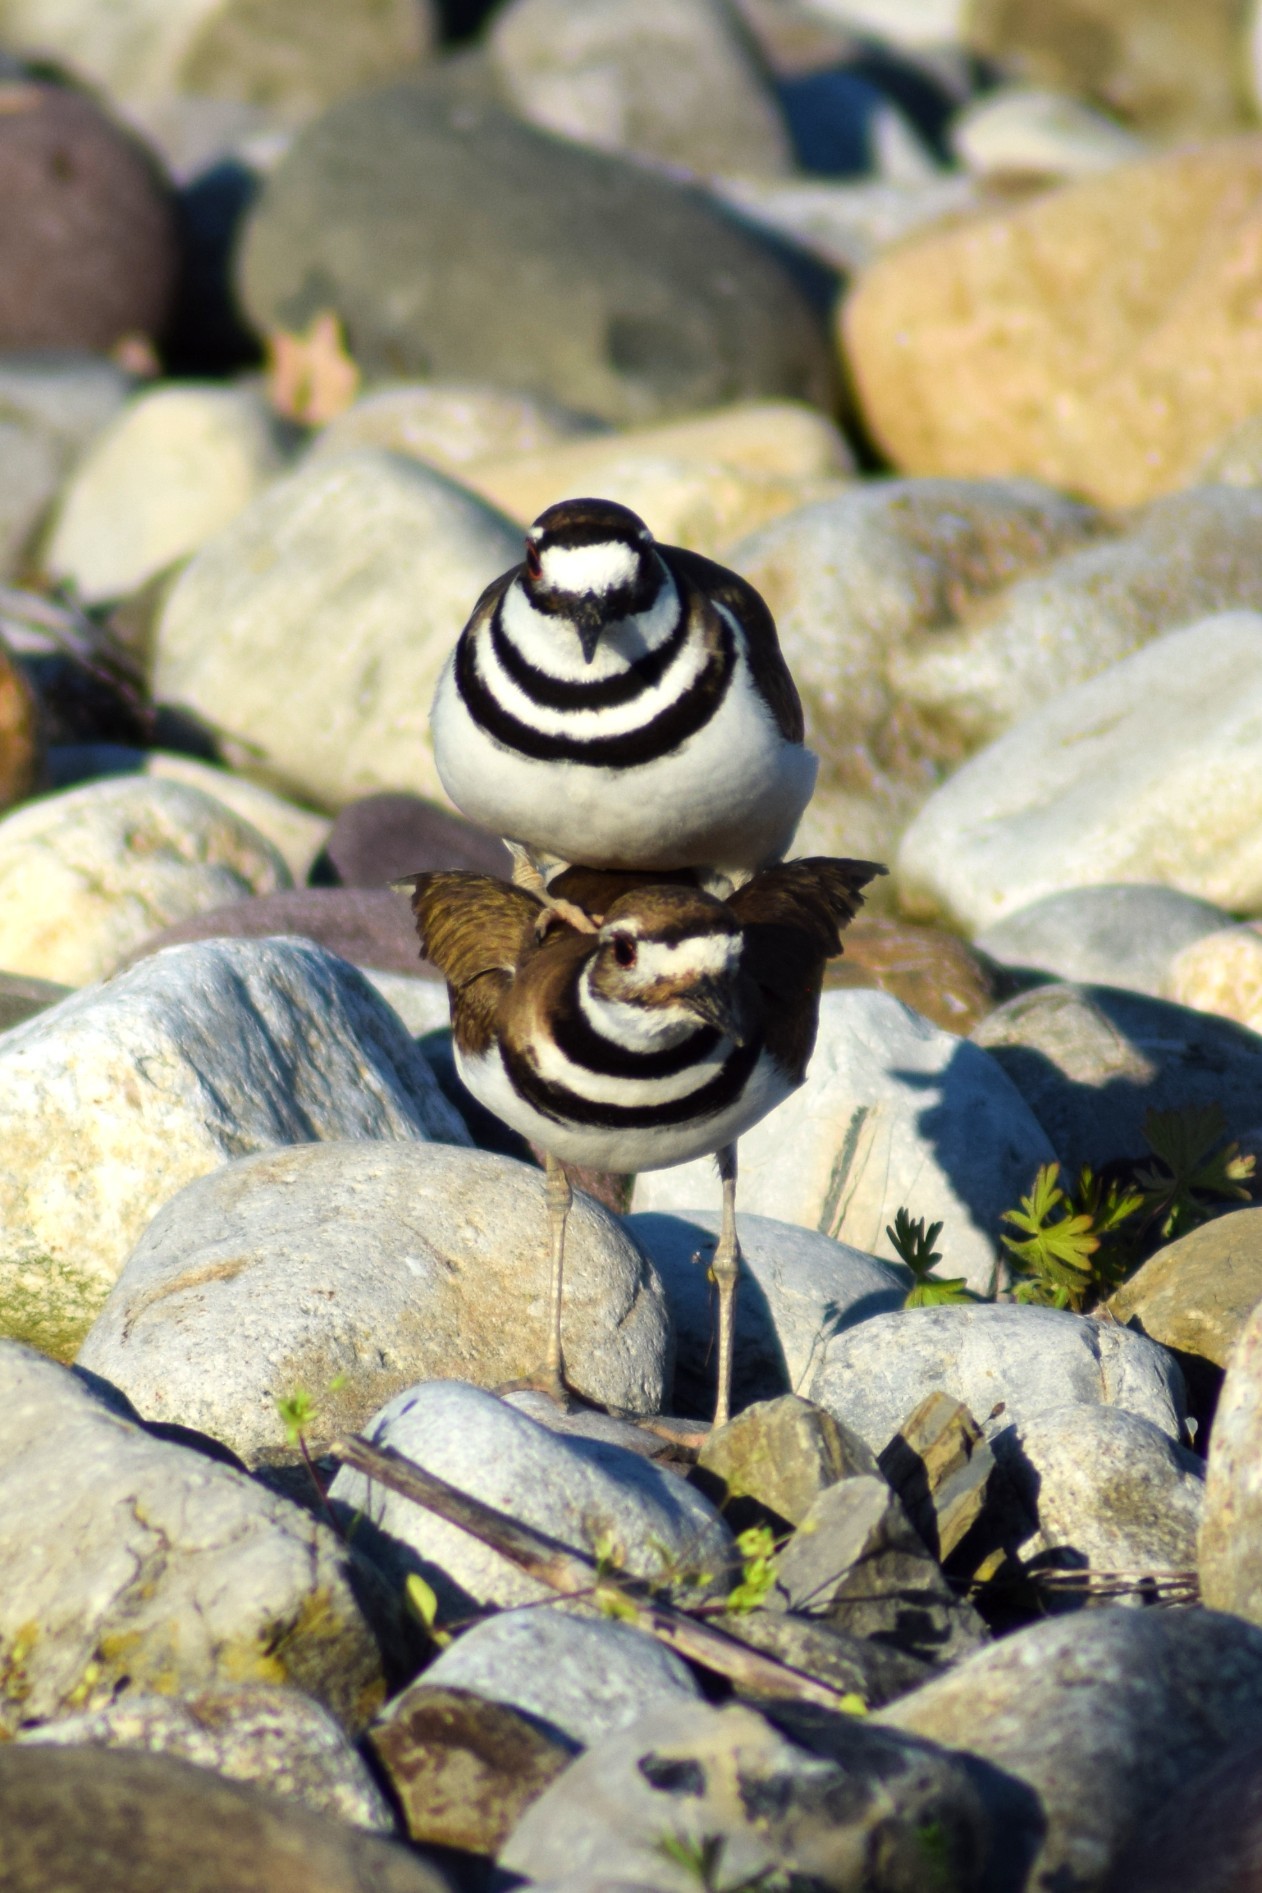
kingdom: Animalia
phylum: Chordata
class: Aves
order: Charadriiformes
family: Charadriidae
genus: Charadrius
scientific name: Charadrius vociferus
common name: Killdeer
